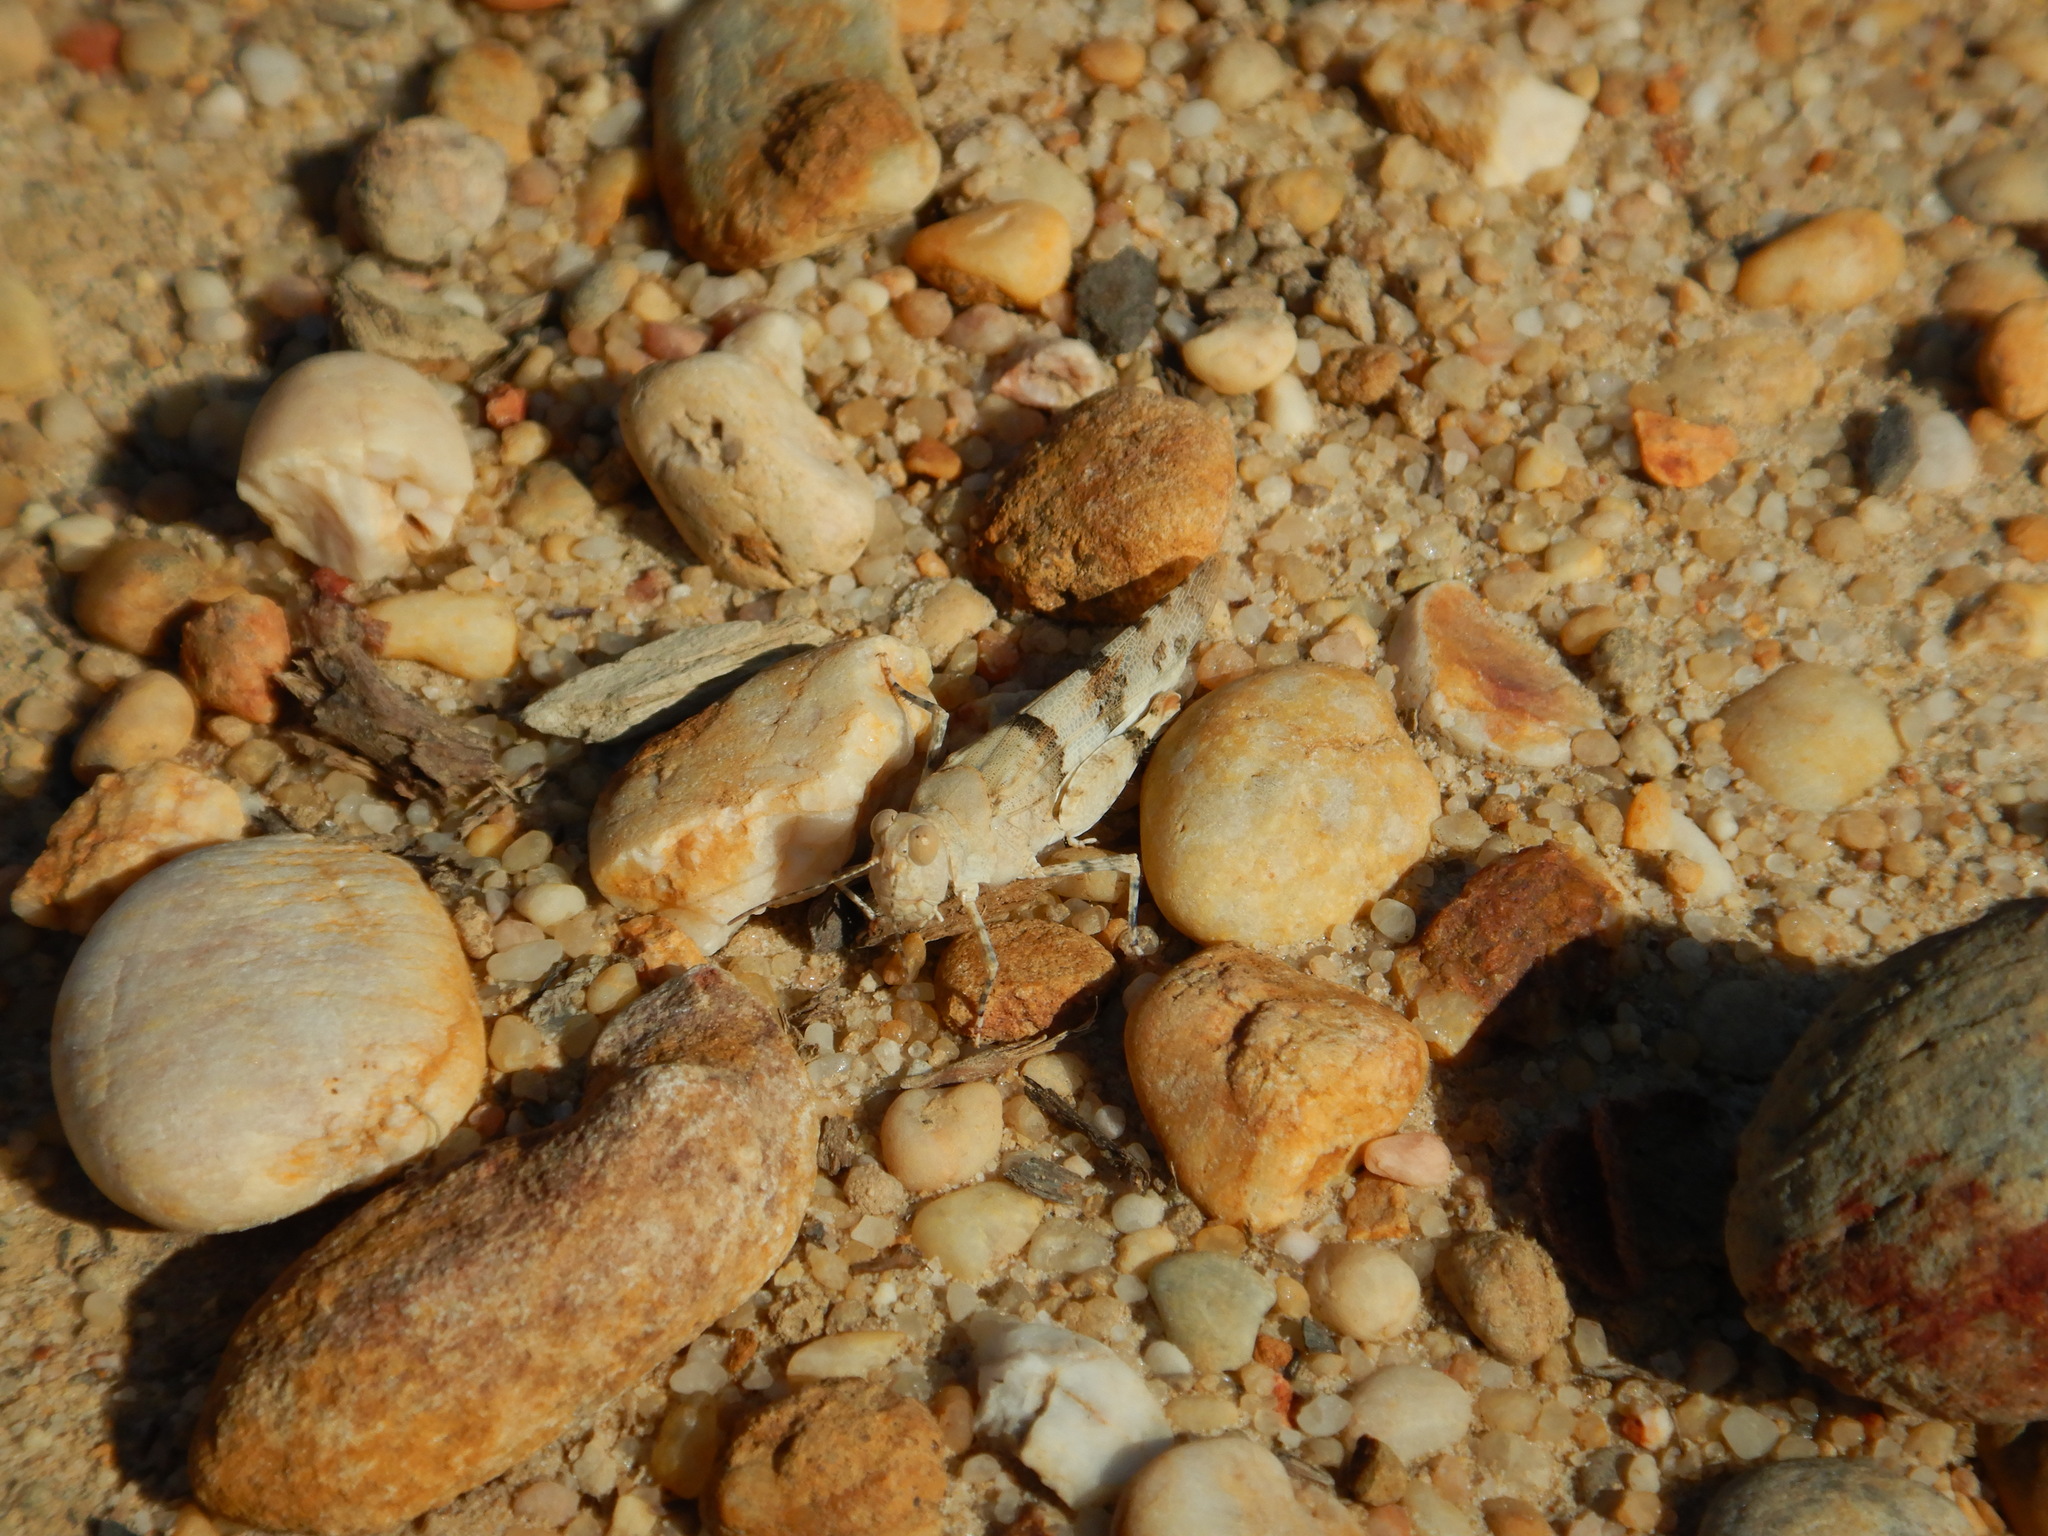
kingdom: Animalia
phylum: Arthropoda
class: Insecta
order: Orthoptera
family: Acrididae
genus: Sphingonotus
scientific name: Sphingonotus
